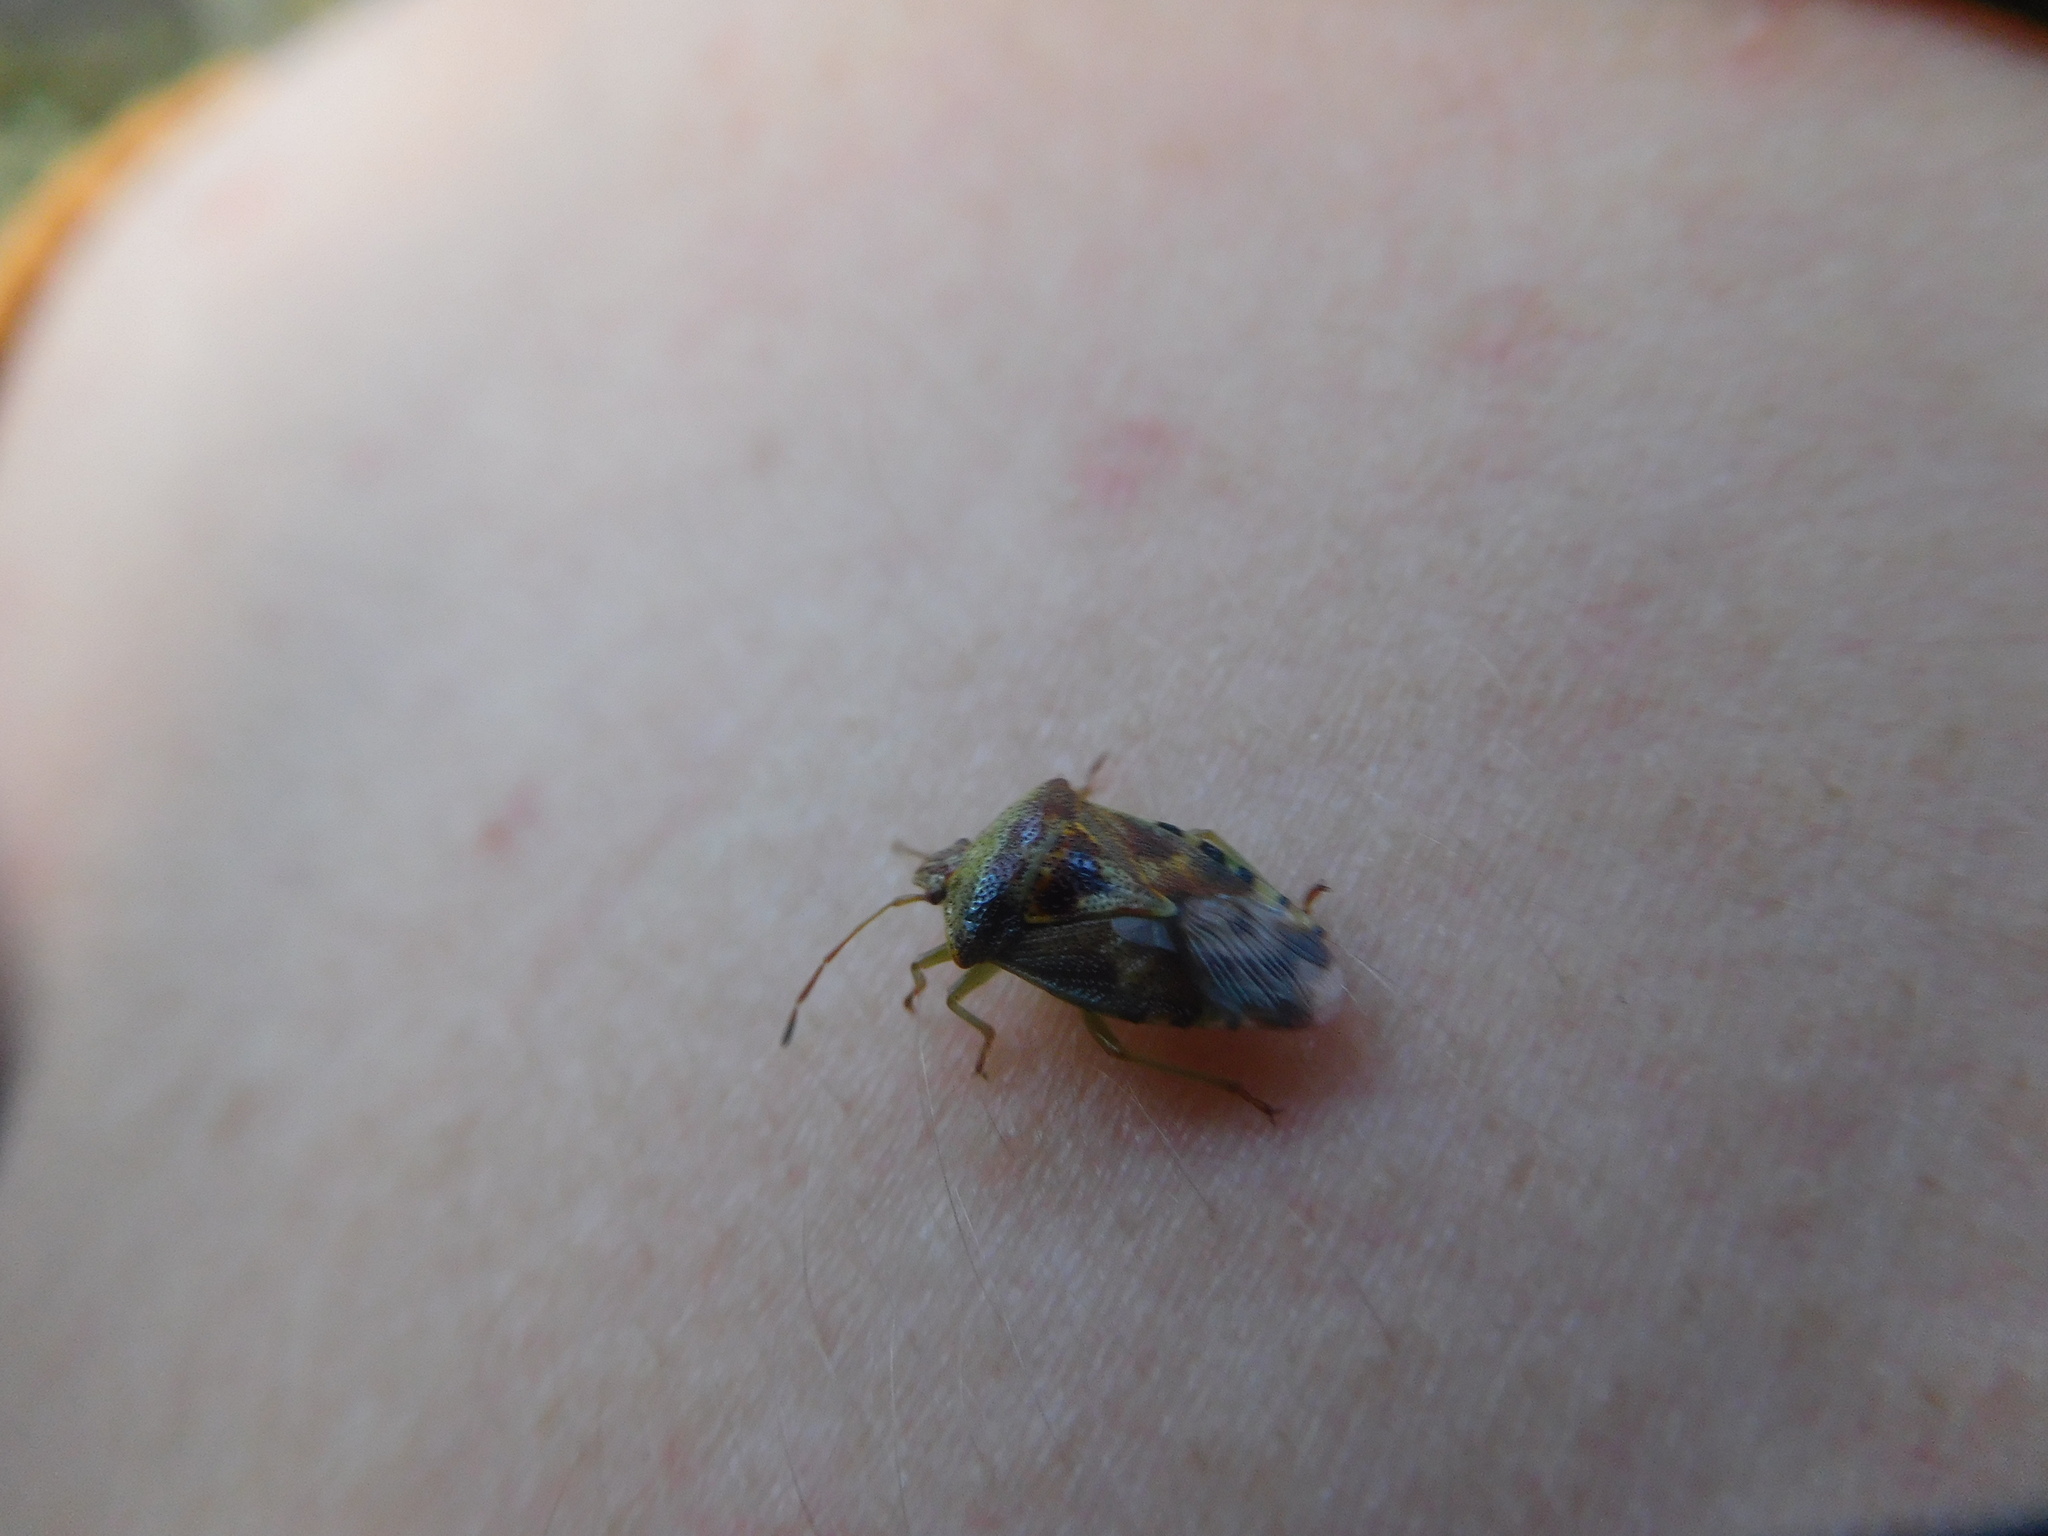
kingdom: Animalia
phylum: Arthropoda
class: Insecta
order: Hemiptera
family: Acanthosomatidae
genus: Elasmucha
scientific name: Elasmucha grisea
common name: Parent bug
